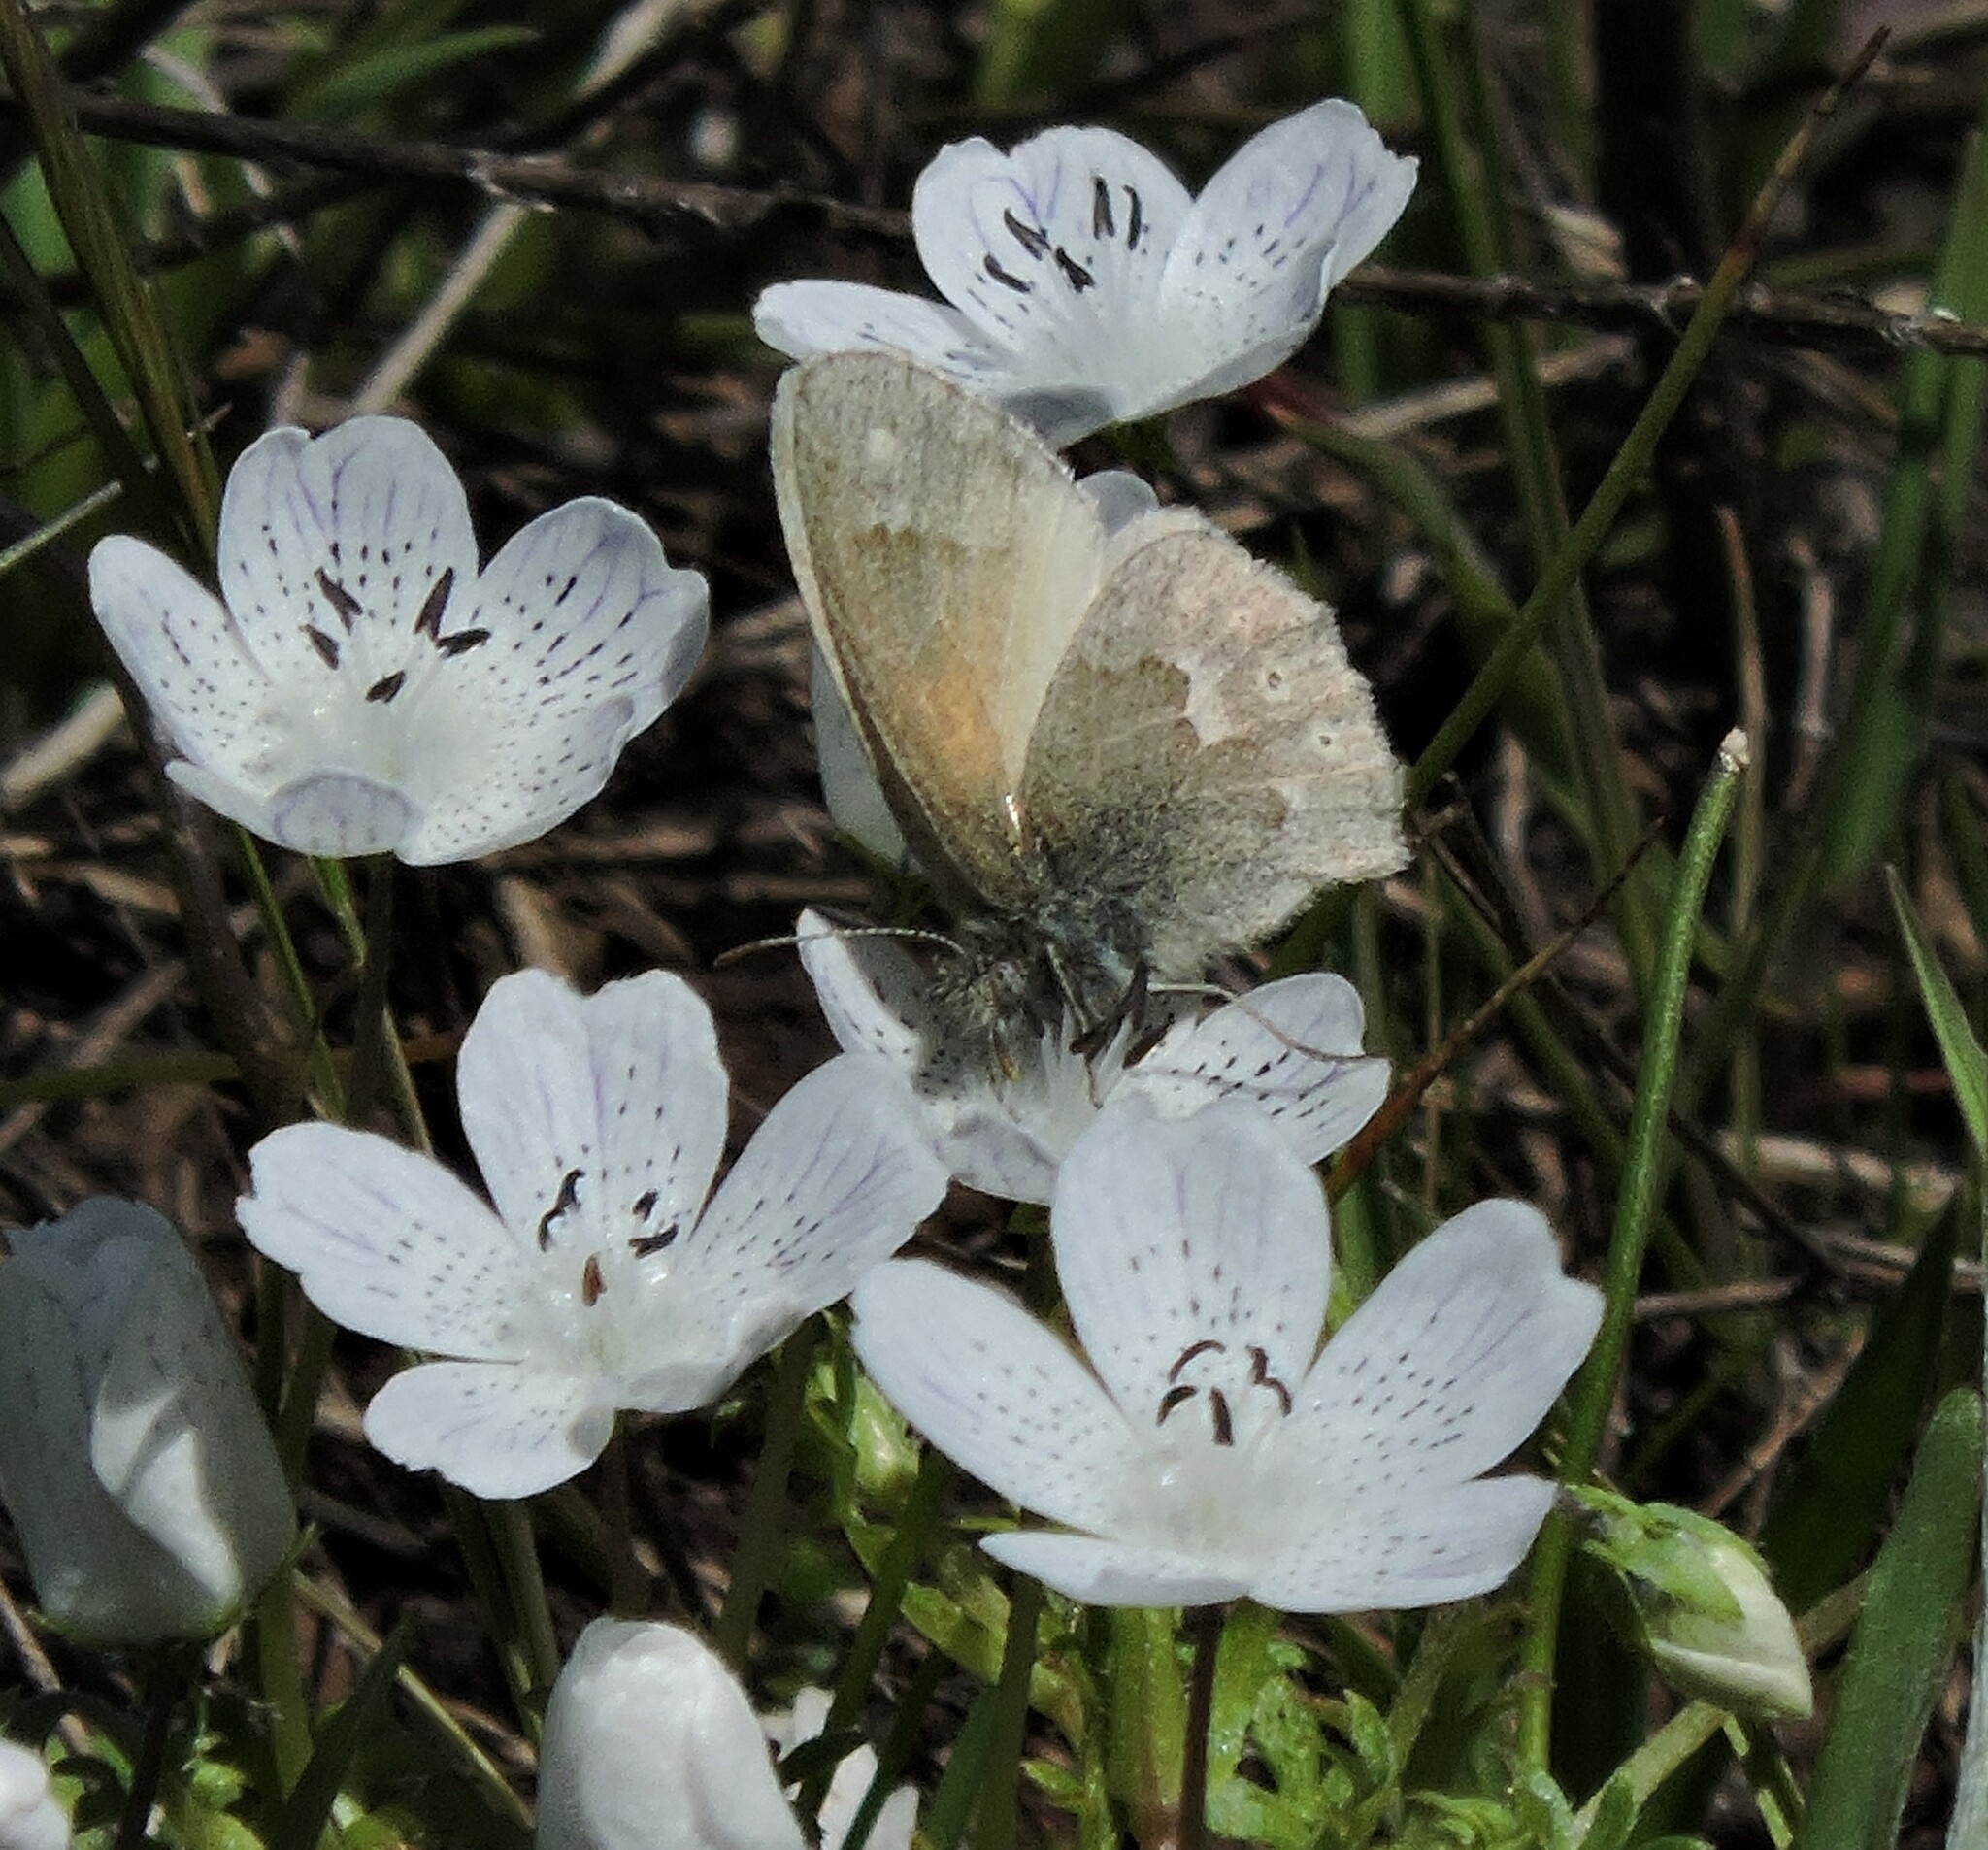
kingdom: Animalia
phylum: Arthropoda
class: Insecta
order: Lepidoptera
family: Nymphalidae
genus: Coenonympha
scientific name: Coenonympha california
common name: Common ringlet
